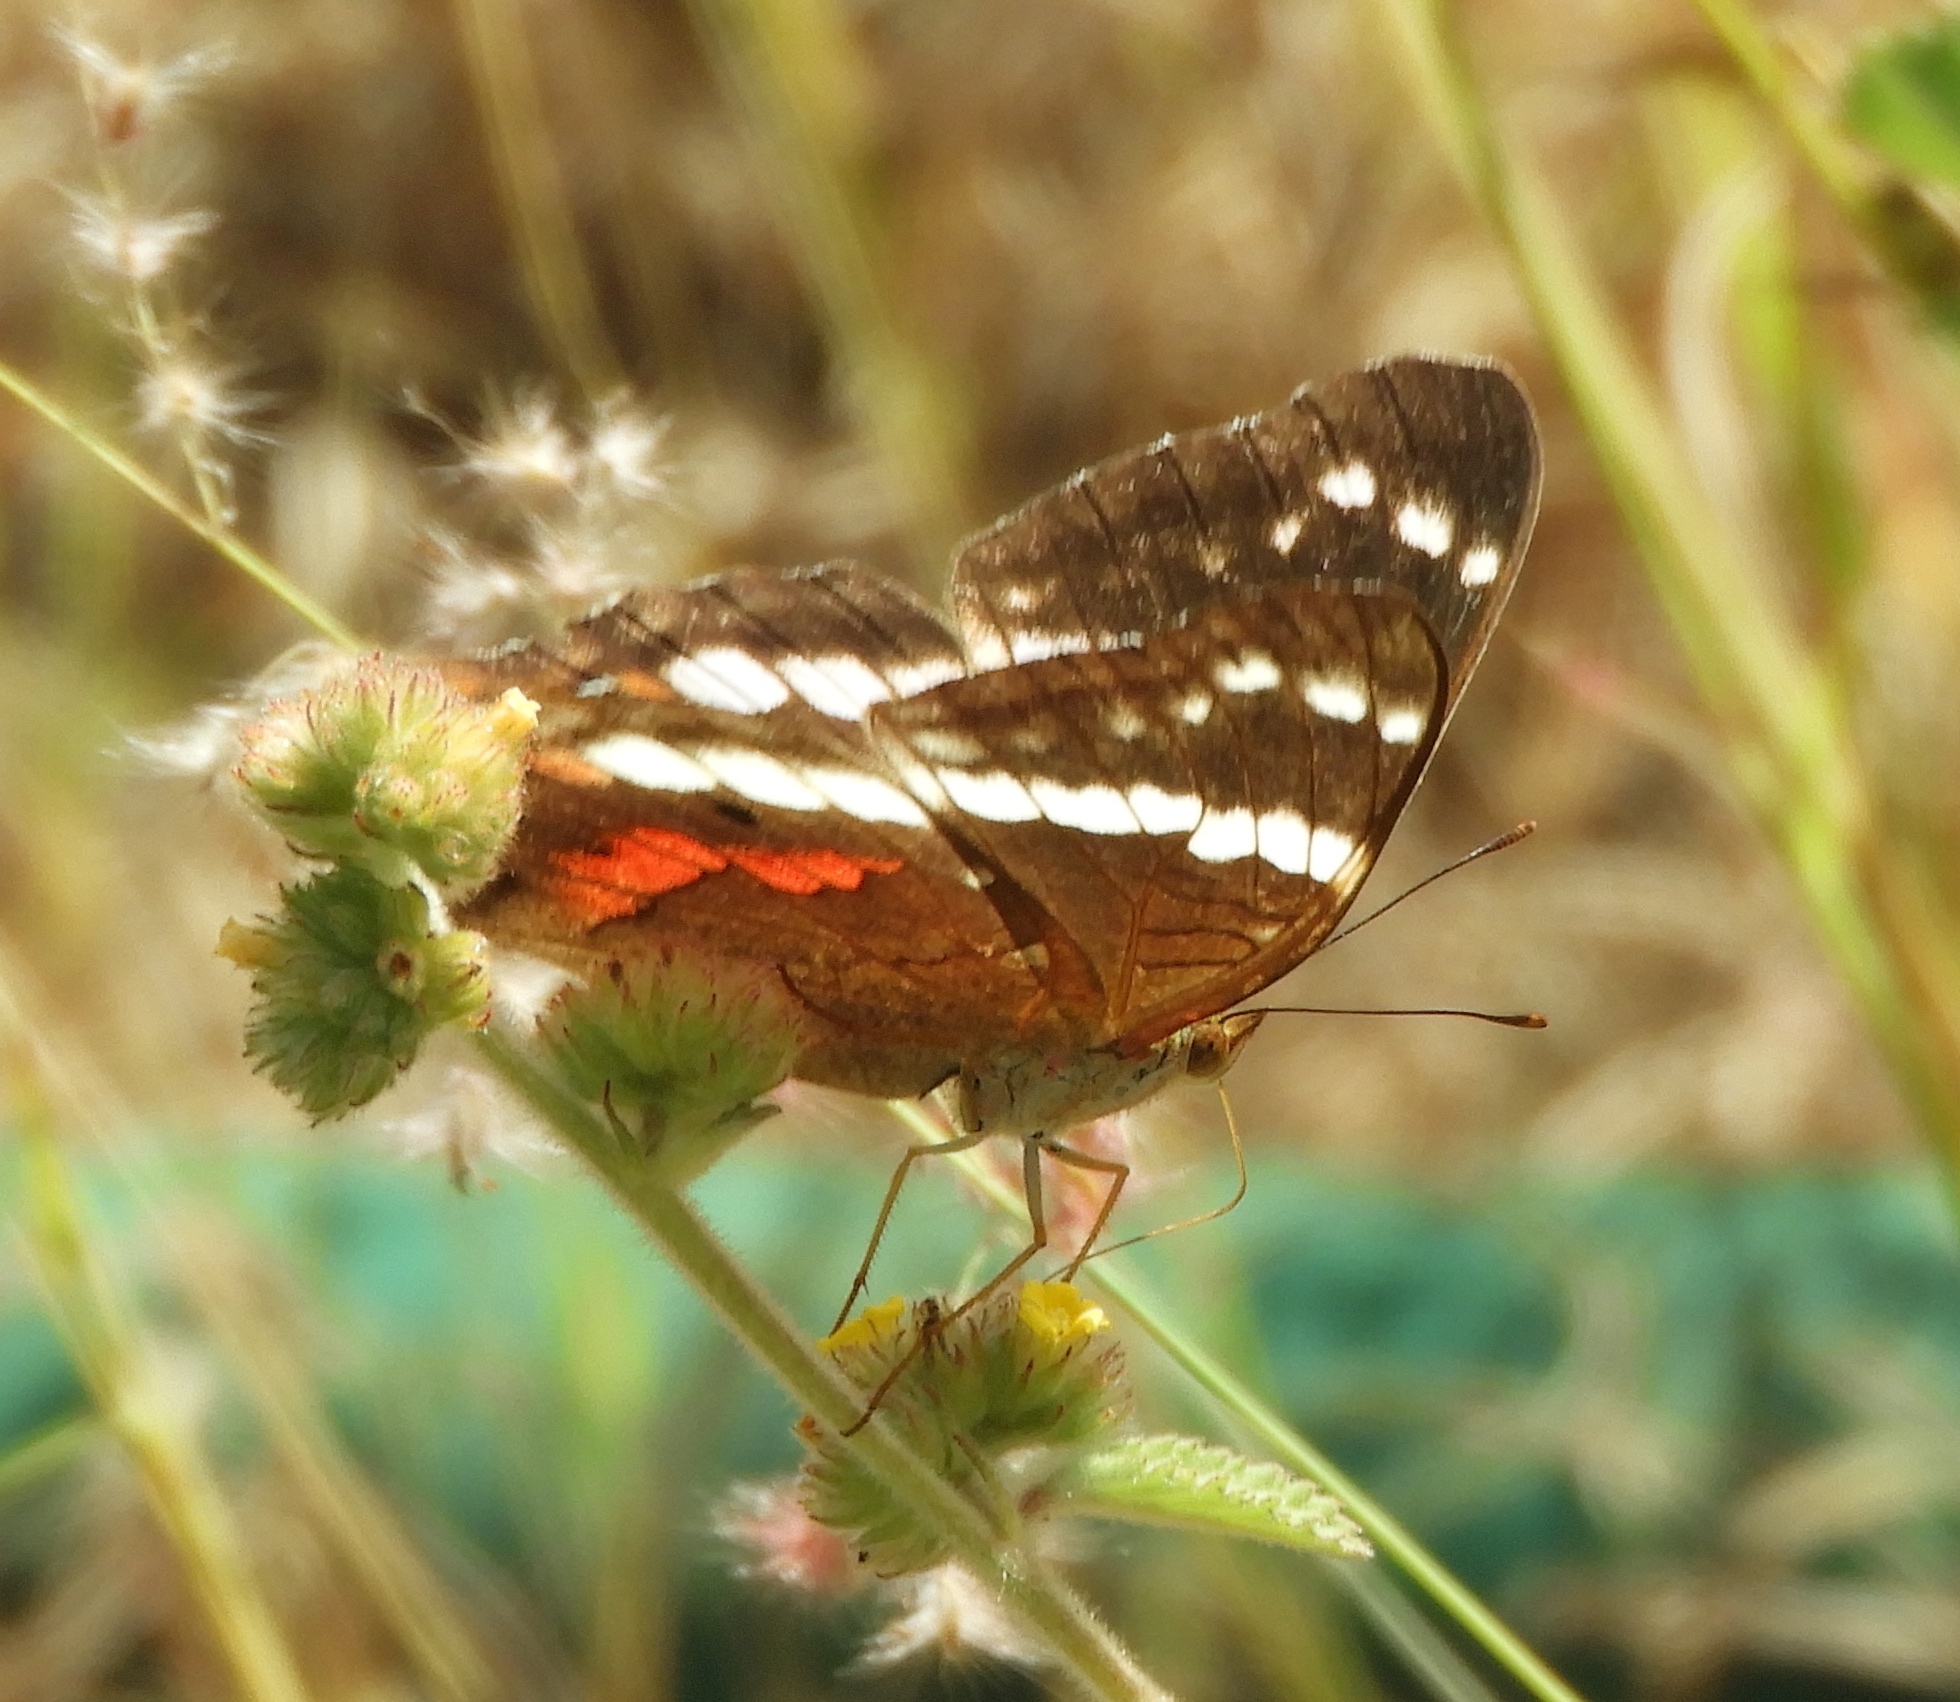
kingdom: Animalia
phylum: Arthropoda
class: Insecta
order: Lepidoptera
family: Nymphalidae
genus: Anartia
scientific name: Anartia fatima
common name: Banded peacock
